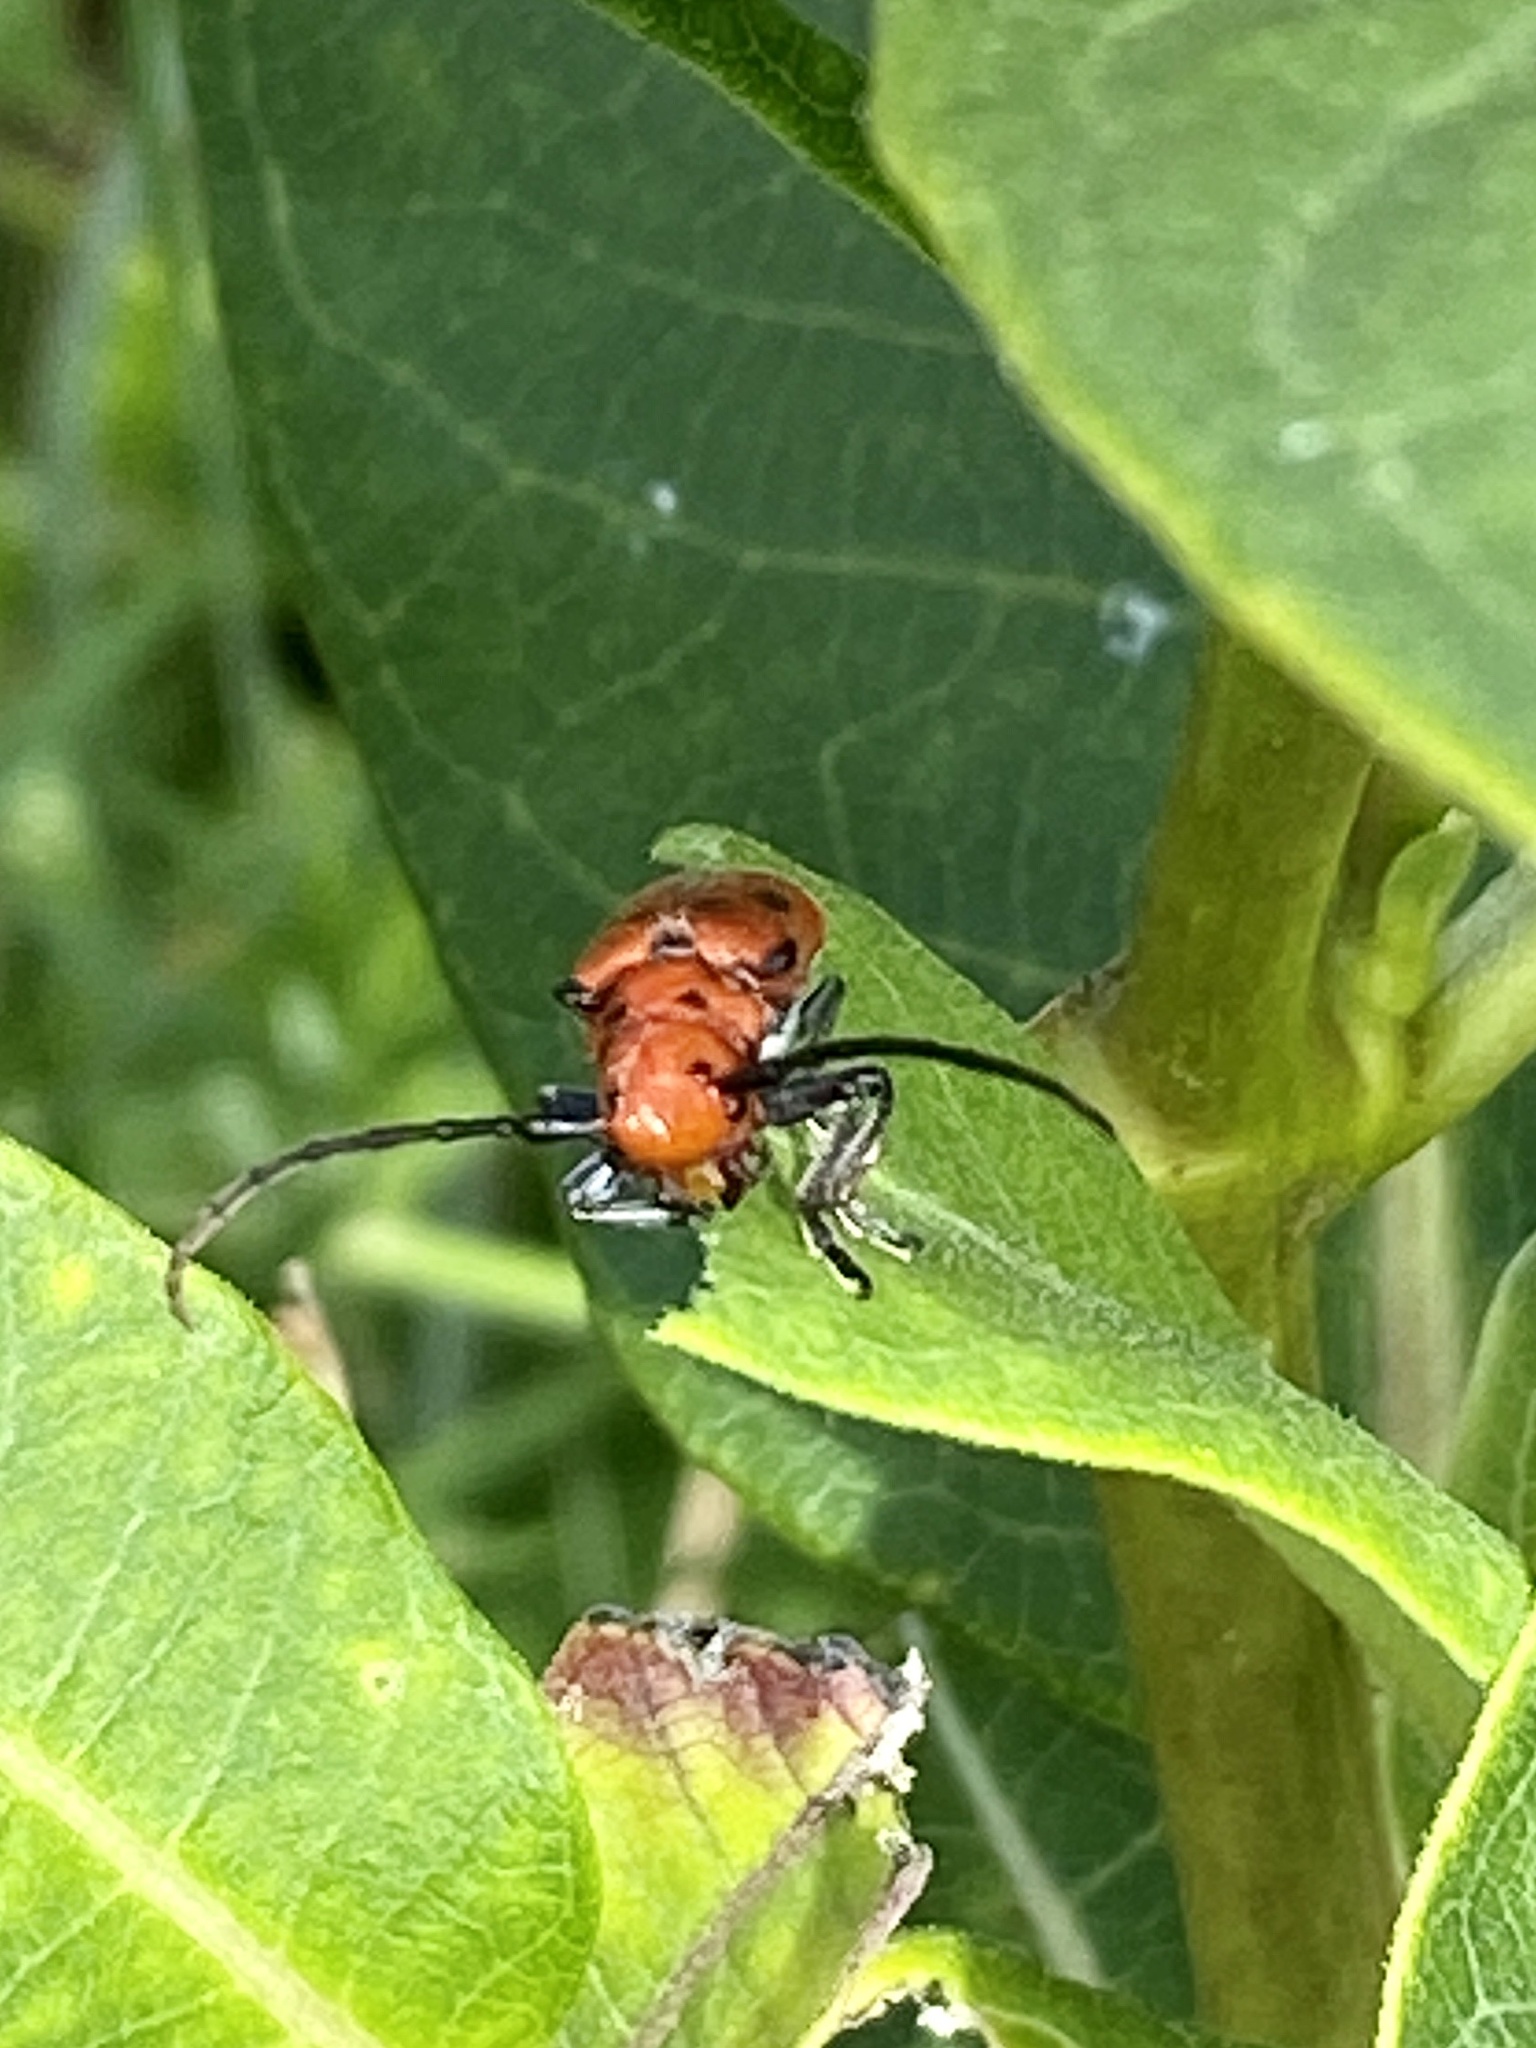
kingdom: Animalia
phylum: Arthropoda
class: Insecta
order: Coleoptera
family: Cerambycidae
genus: Tetraopes
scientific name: Tetraopes tetrophthalmus
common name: Red milkweed beetle
